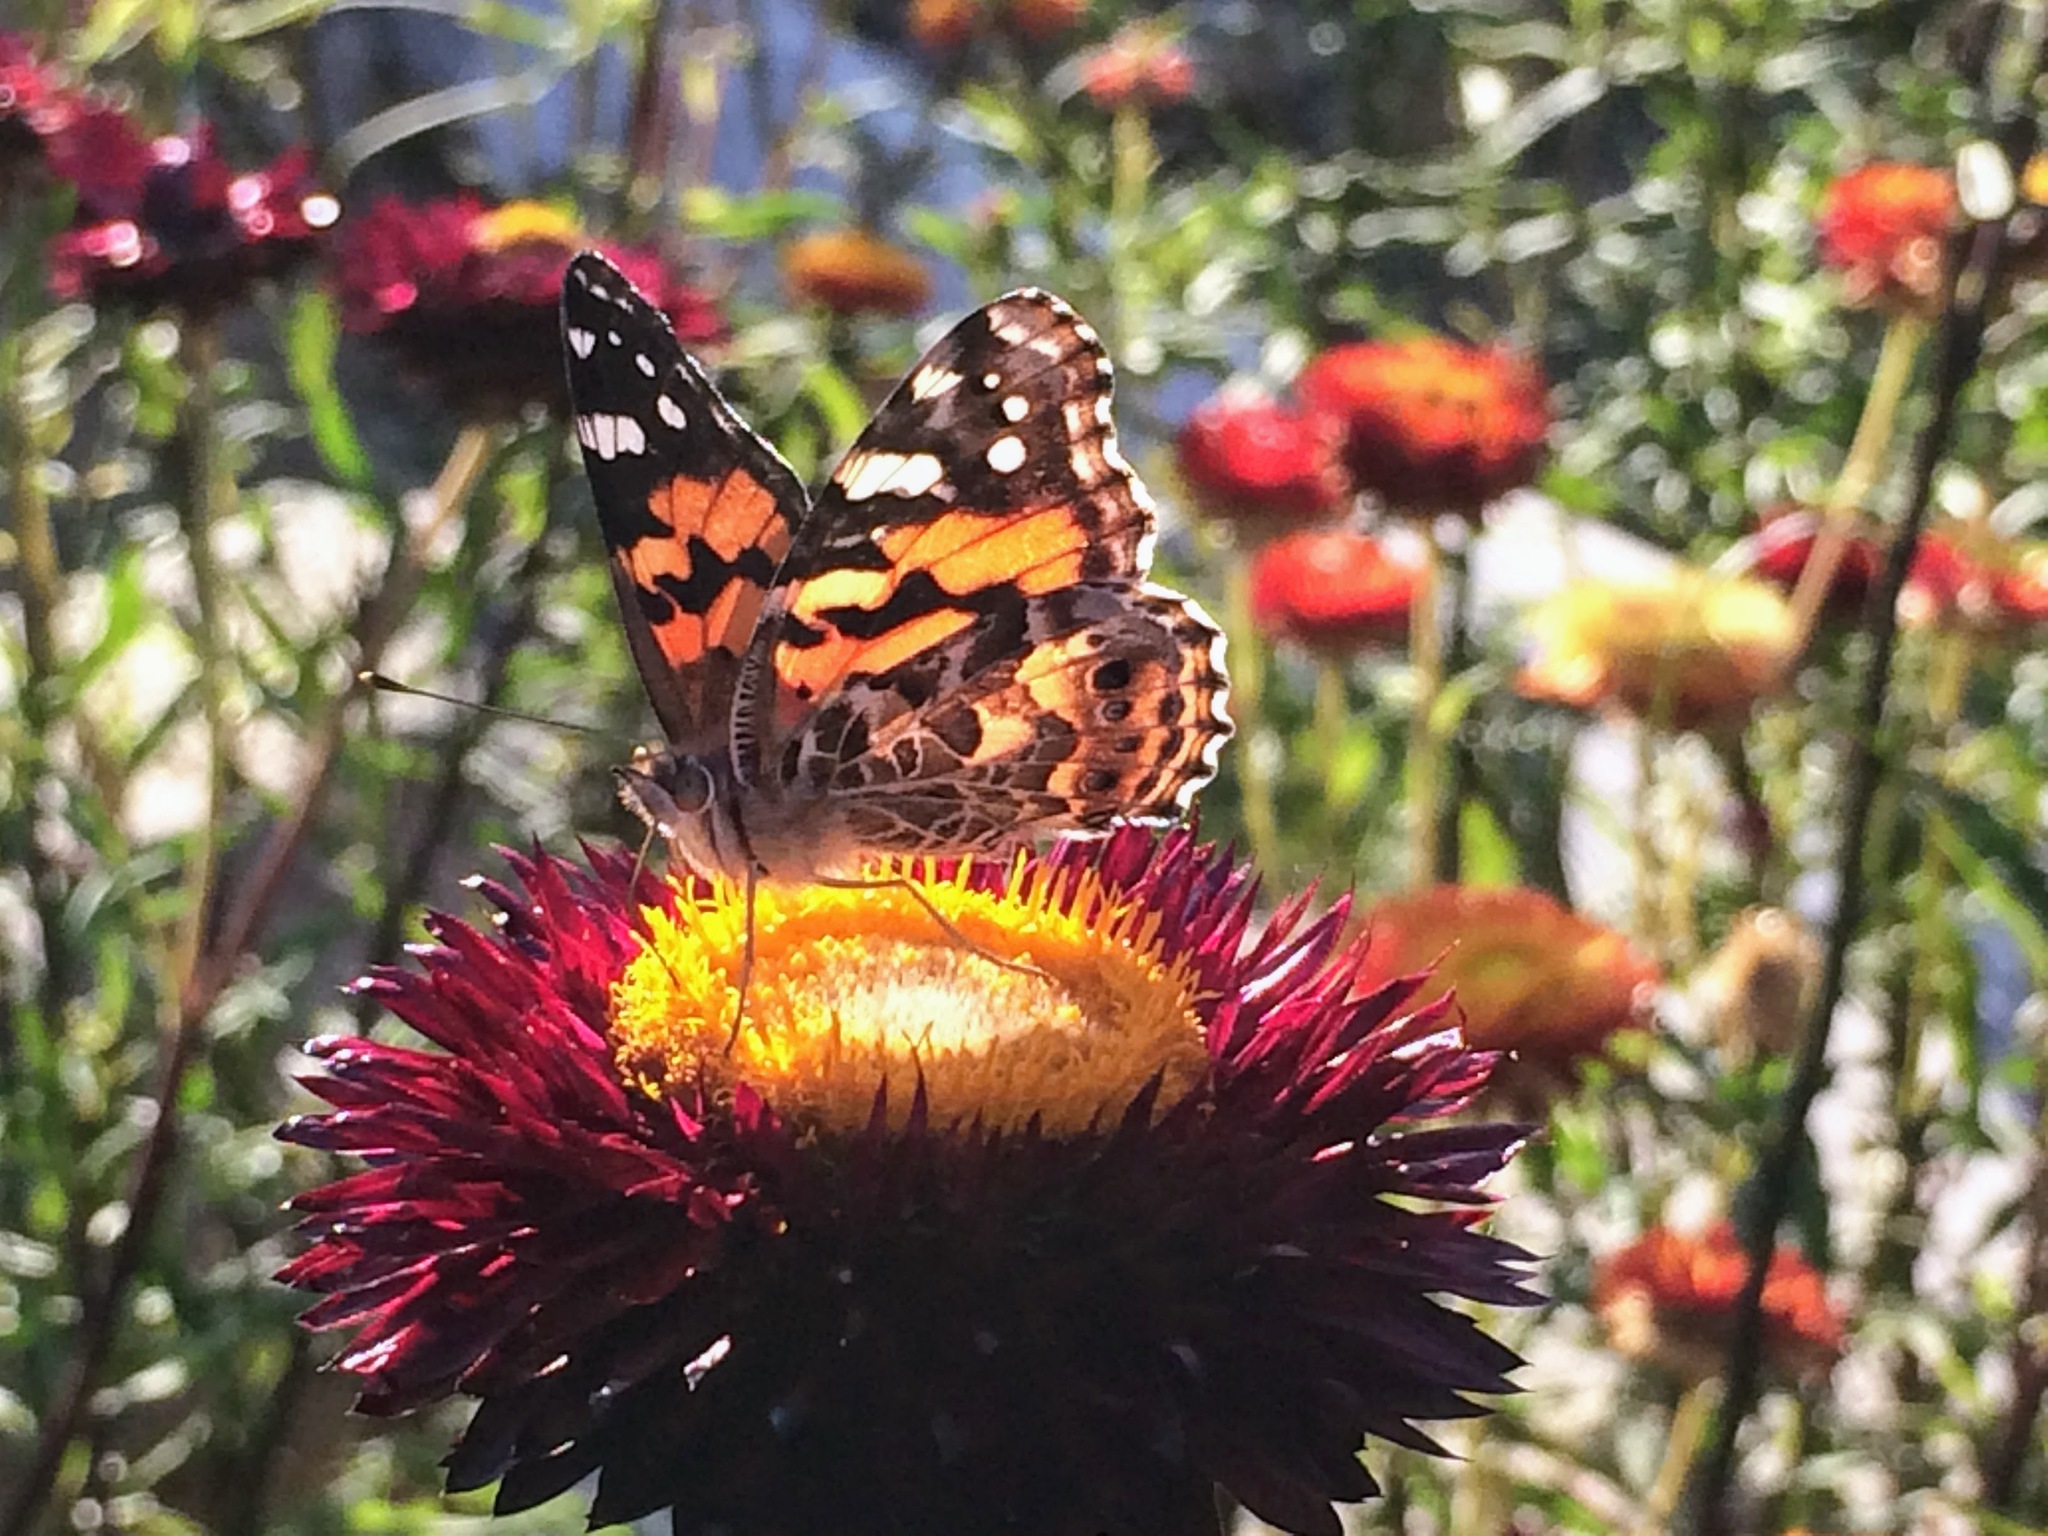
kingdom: Animalia
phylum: Arthropoda
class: Insecta
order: Lepidoptera
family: Nymphalidae
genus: Vanessa
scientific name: Vanessa kershawi
